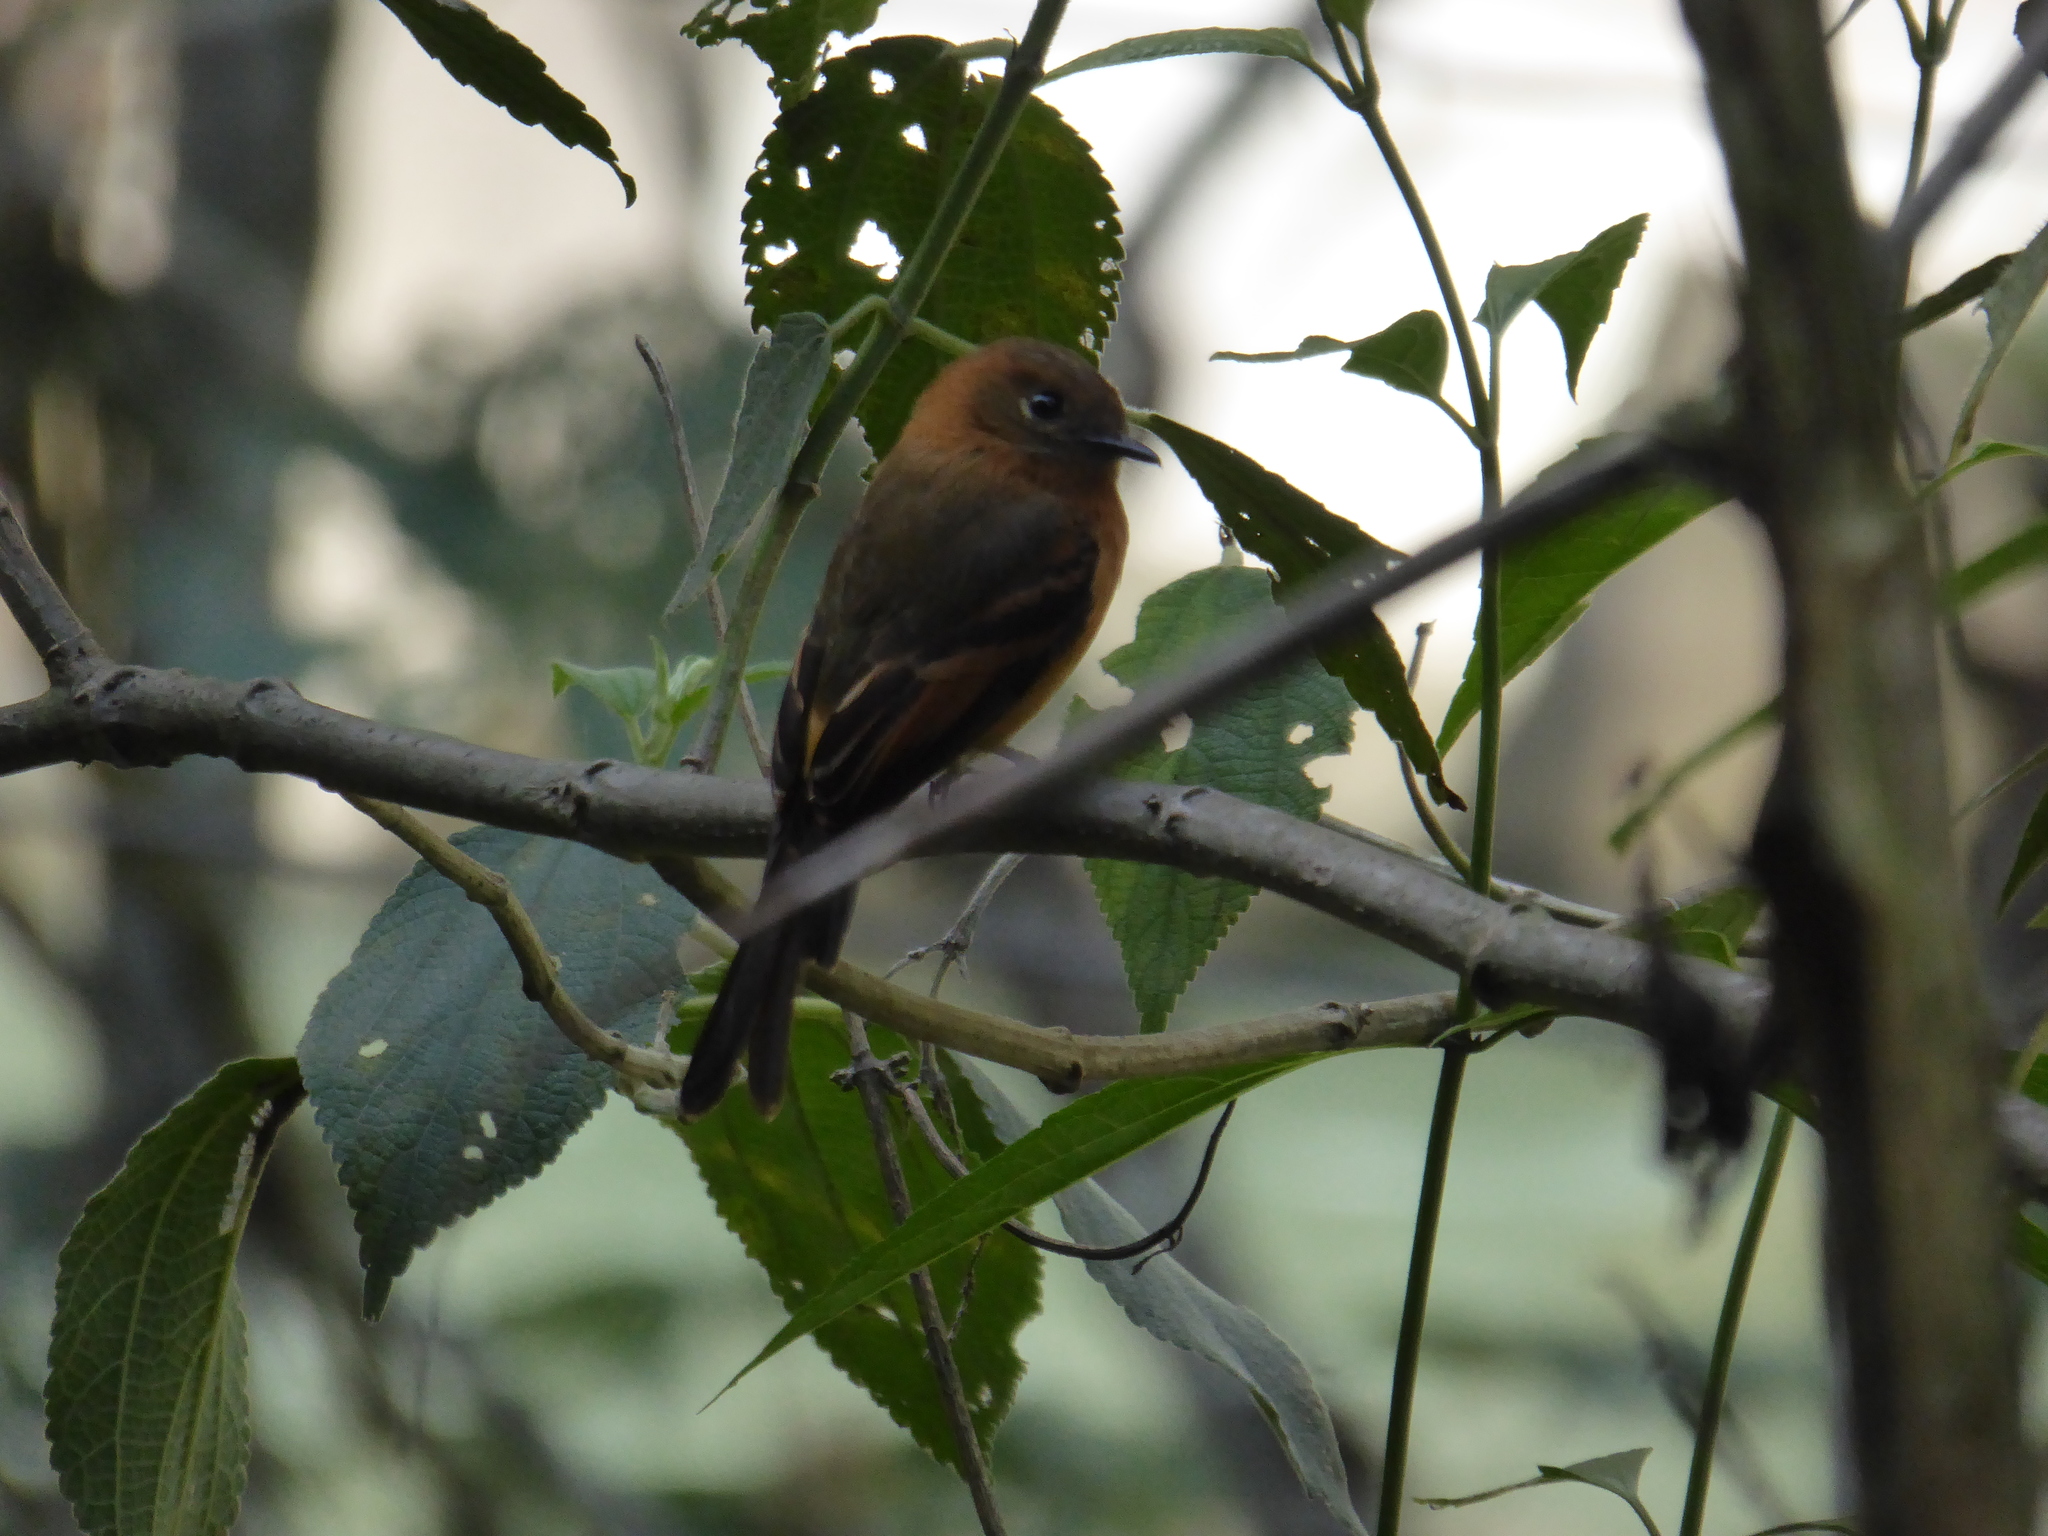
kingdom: Animalia
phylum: Chordata
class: Aves
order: Passeriformes
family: Tyrannidae
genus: Pyrrhomyias
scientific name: Pyrrhomyias cinnamomeus
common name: Cinnamon flycatcher
